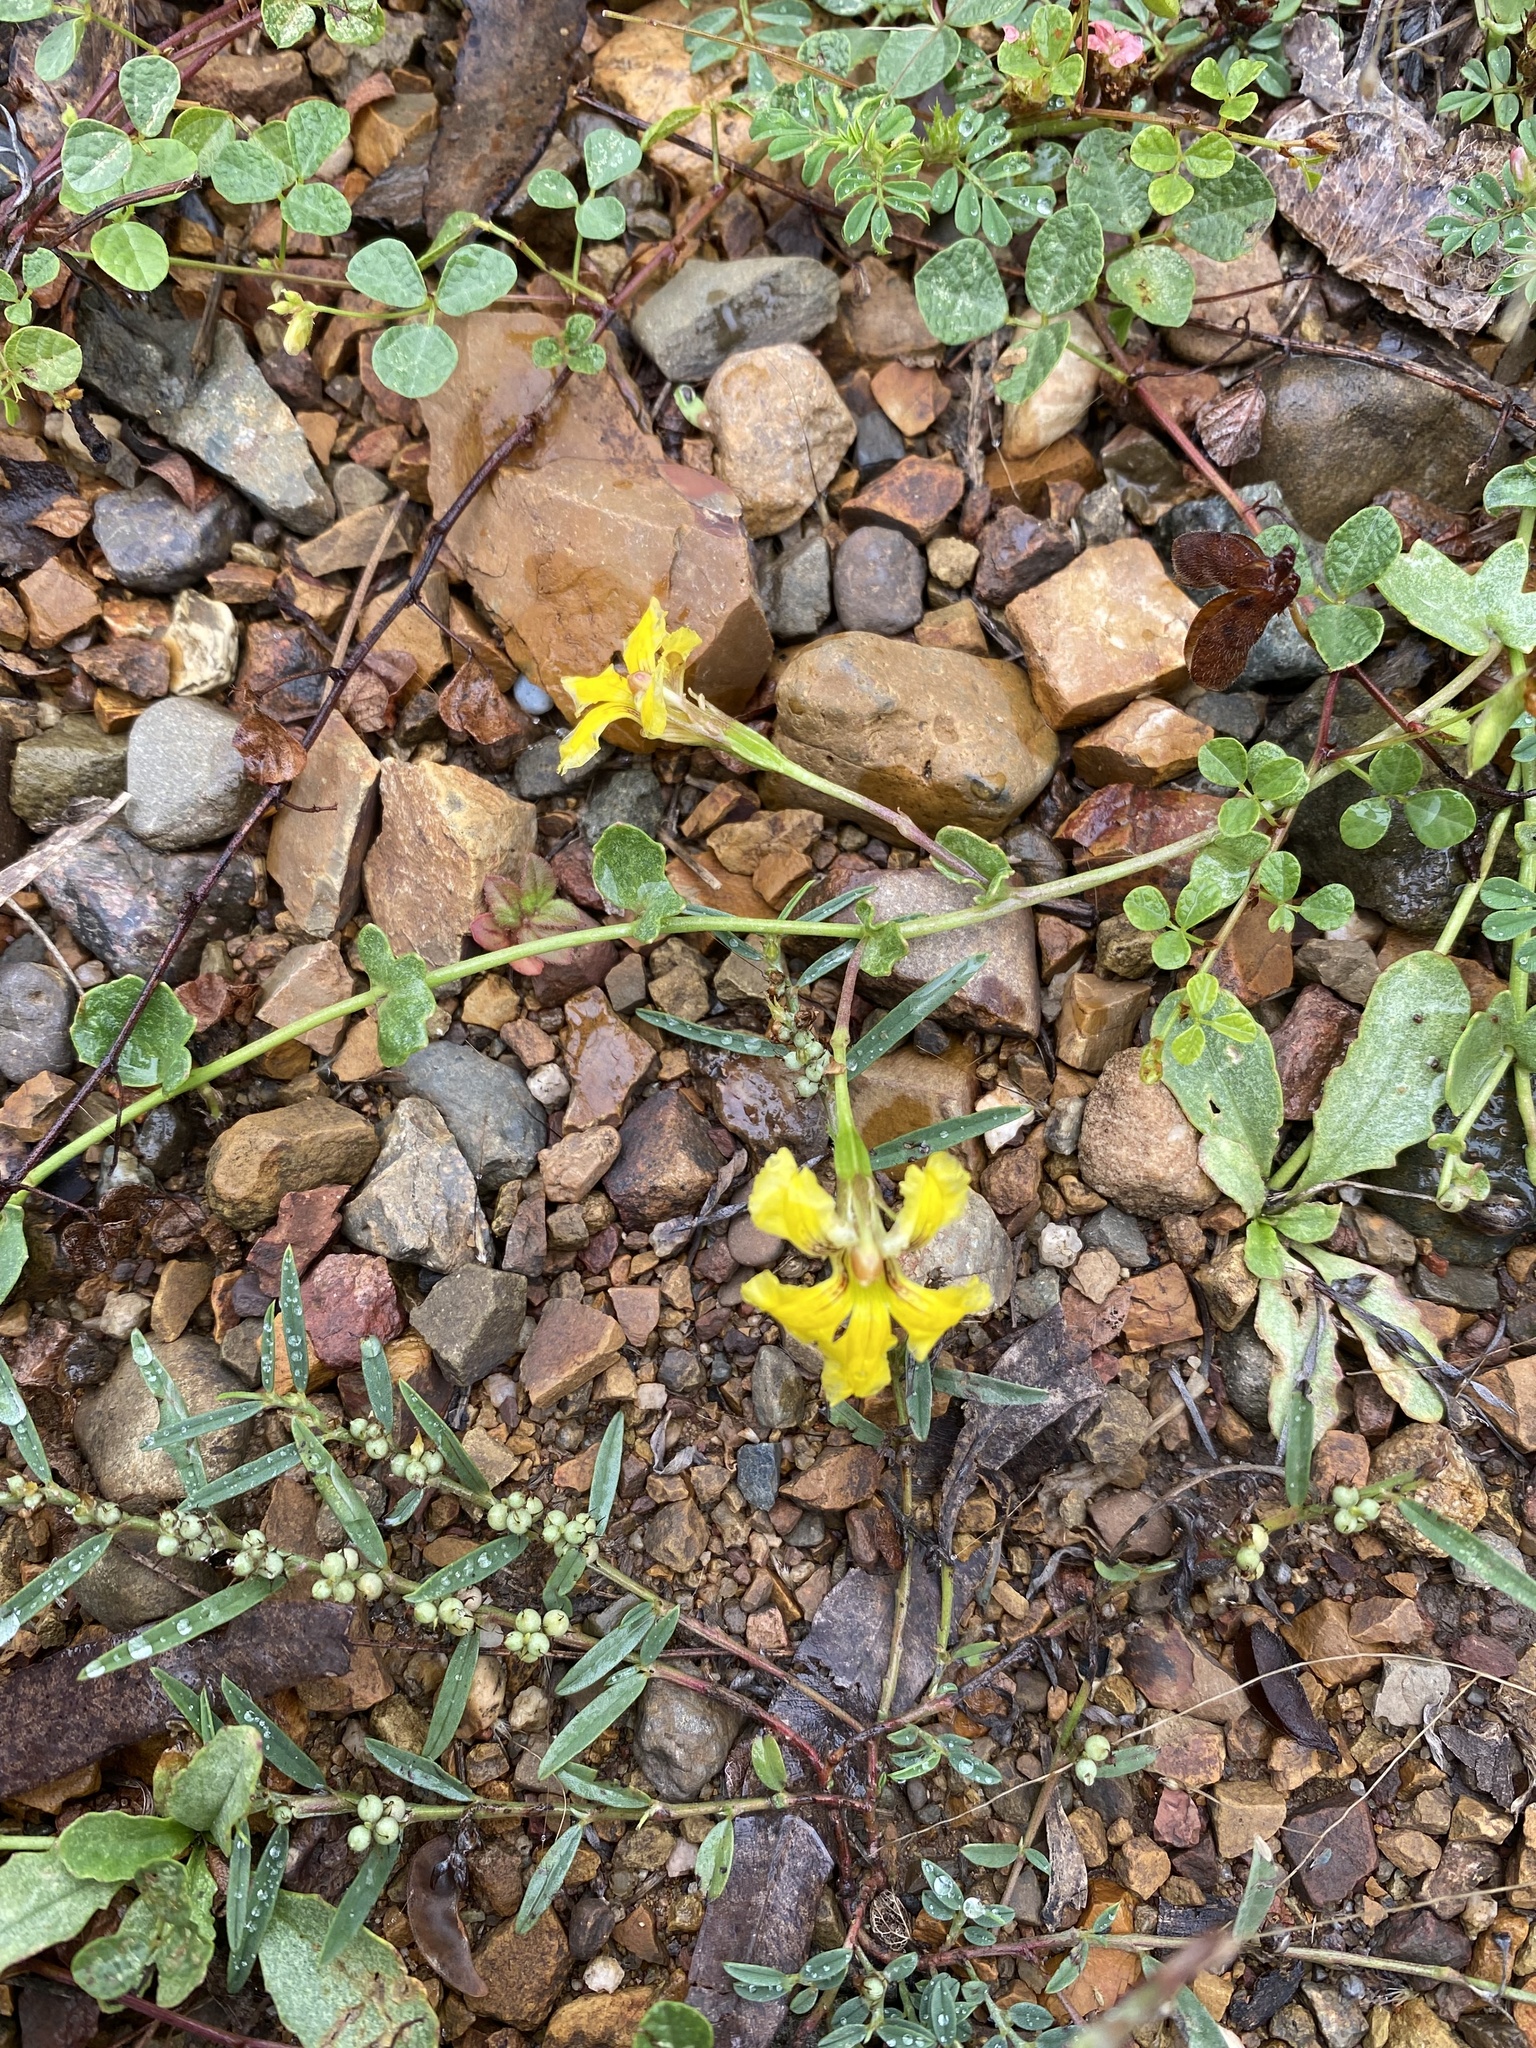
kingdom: Plantae
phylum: Tracheophyta
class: Magnoliopsida
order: Asterales
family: Goodeniaceae
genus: Goodenia
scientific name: Goodenia glabra
